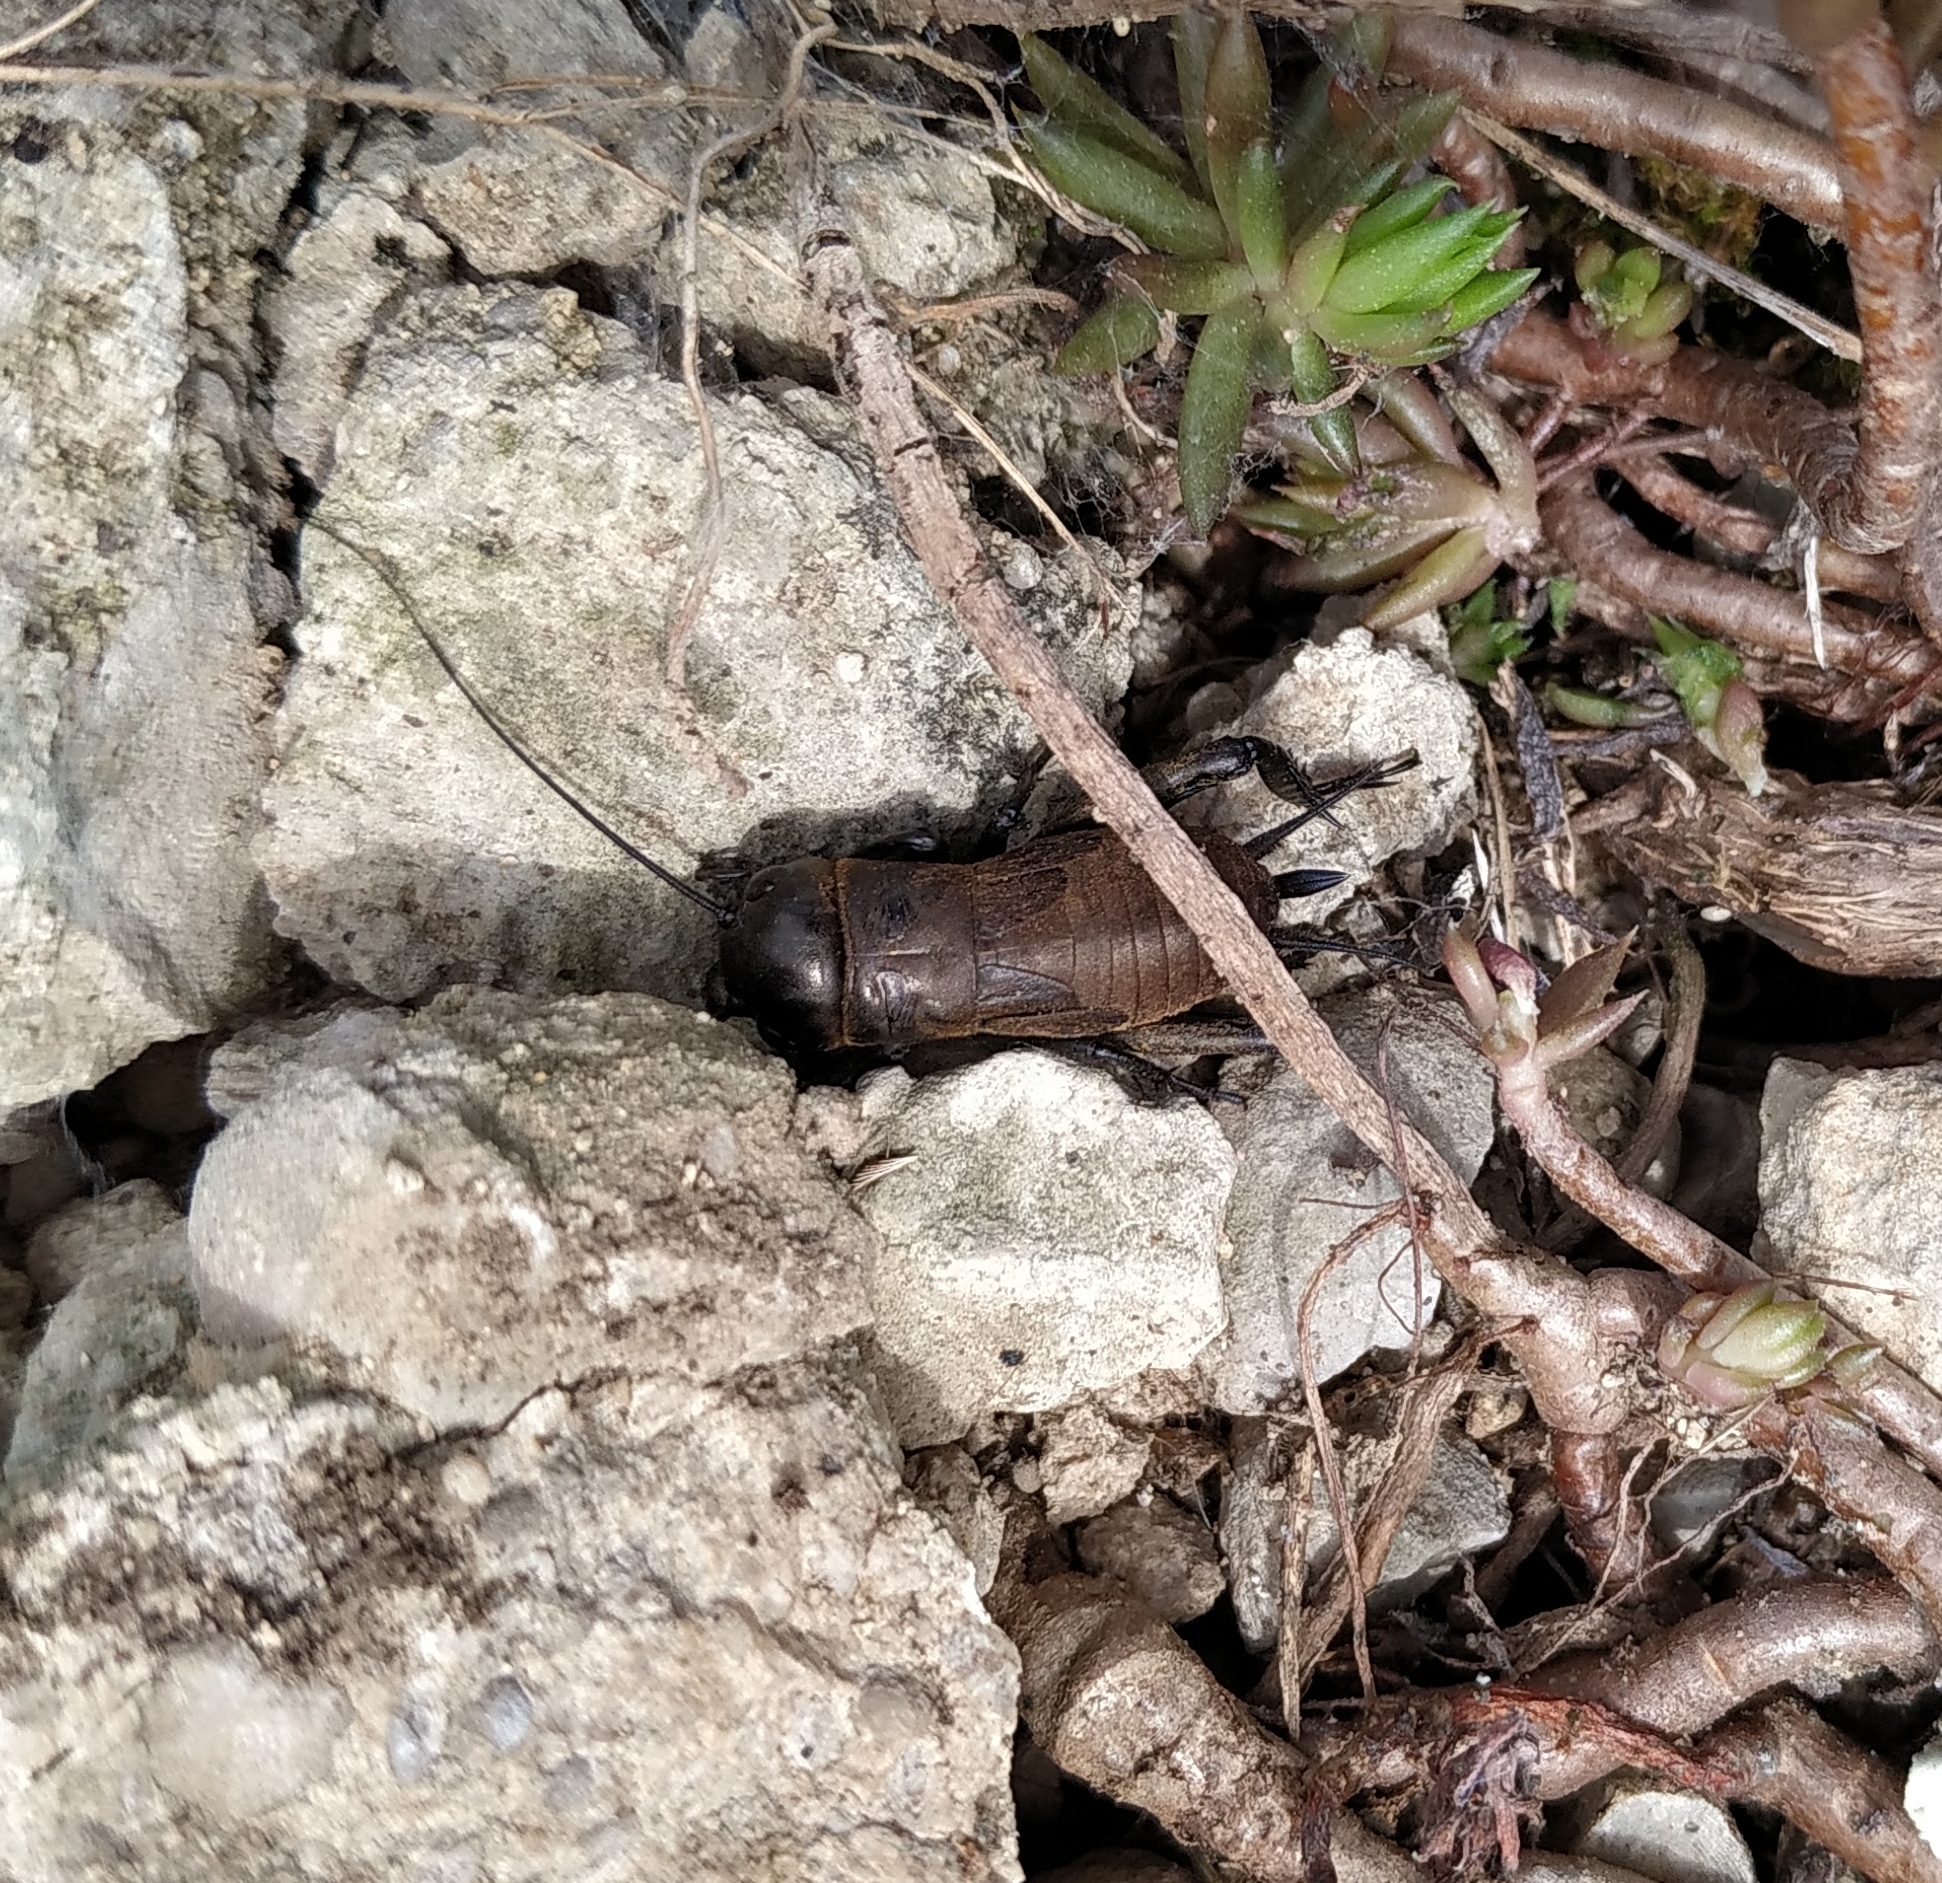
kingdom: Animalia
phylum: Arthropoda
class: Insecta
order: Orthoptera
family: Gryllidae
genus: Gryllus
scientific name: Gryllus campestris
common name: Field cricket
